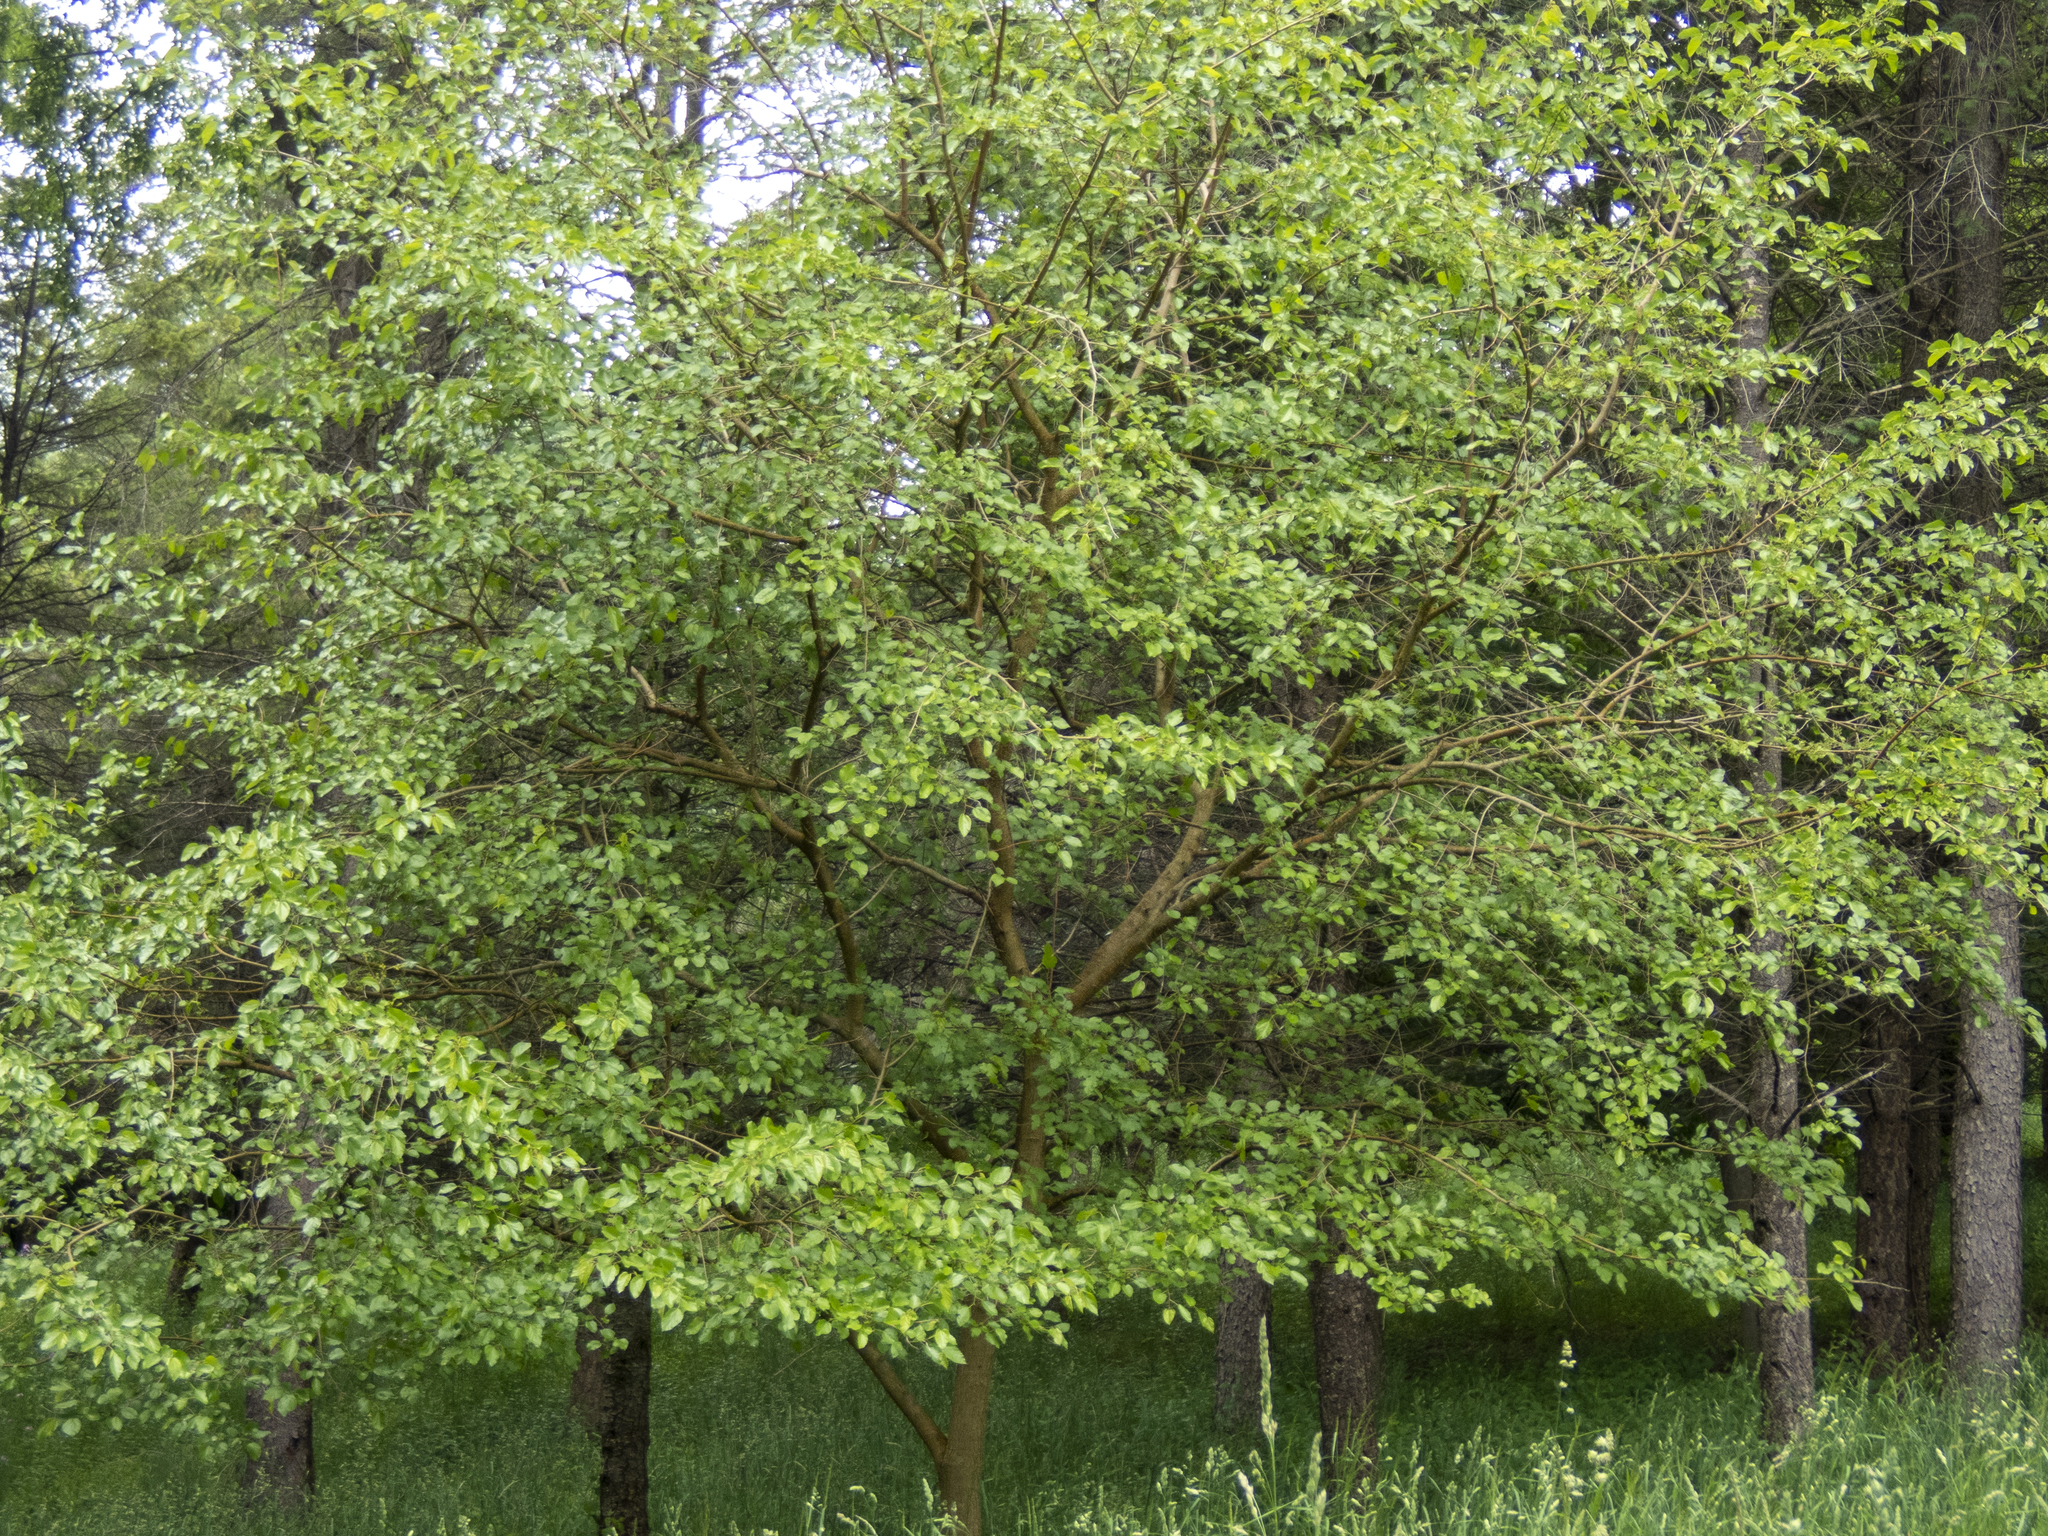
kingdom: Plantae
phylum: Tracheophyta
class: Magnoliopsida
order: Rosales
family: Moraceae
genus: Morus
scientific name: Morus alba
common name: White mulberry
